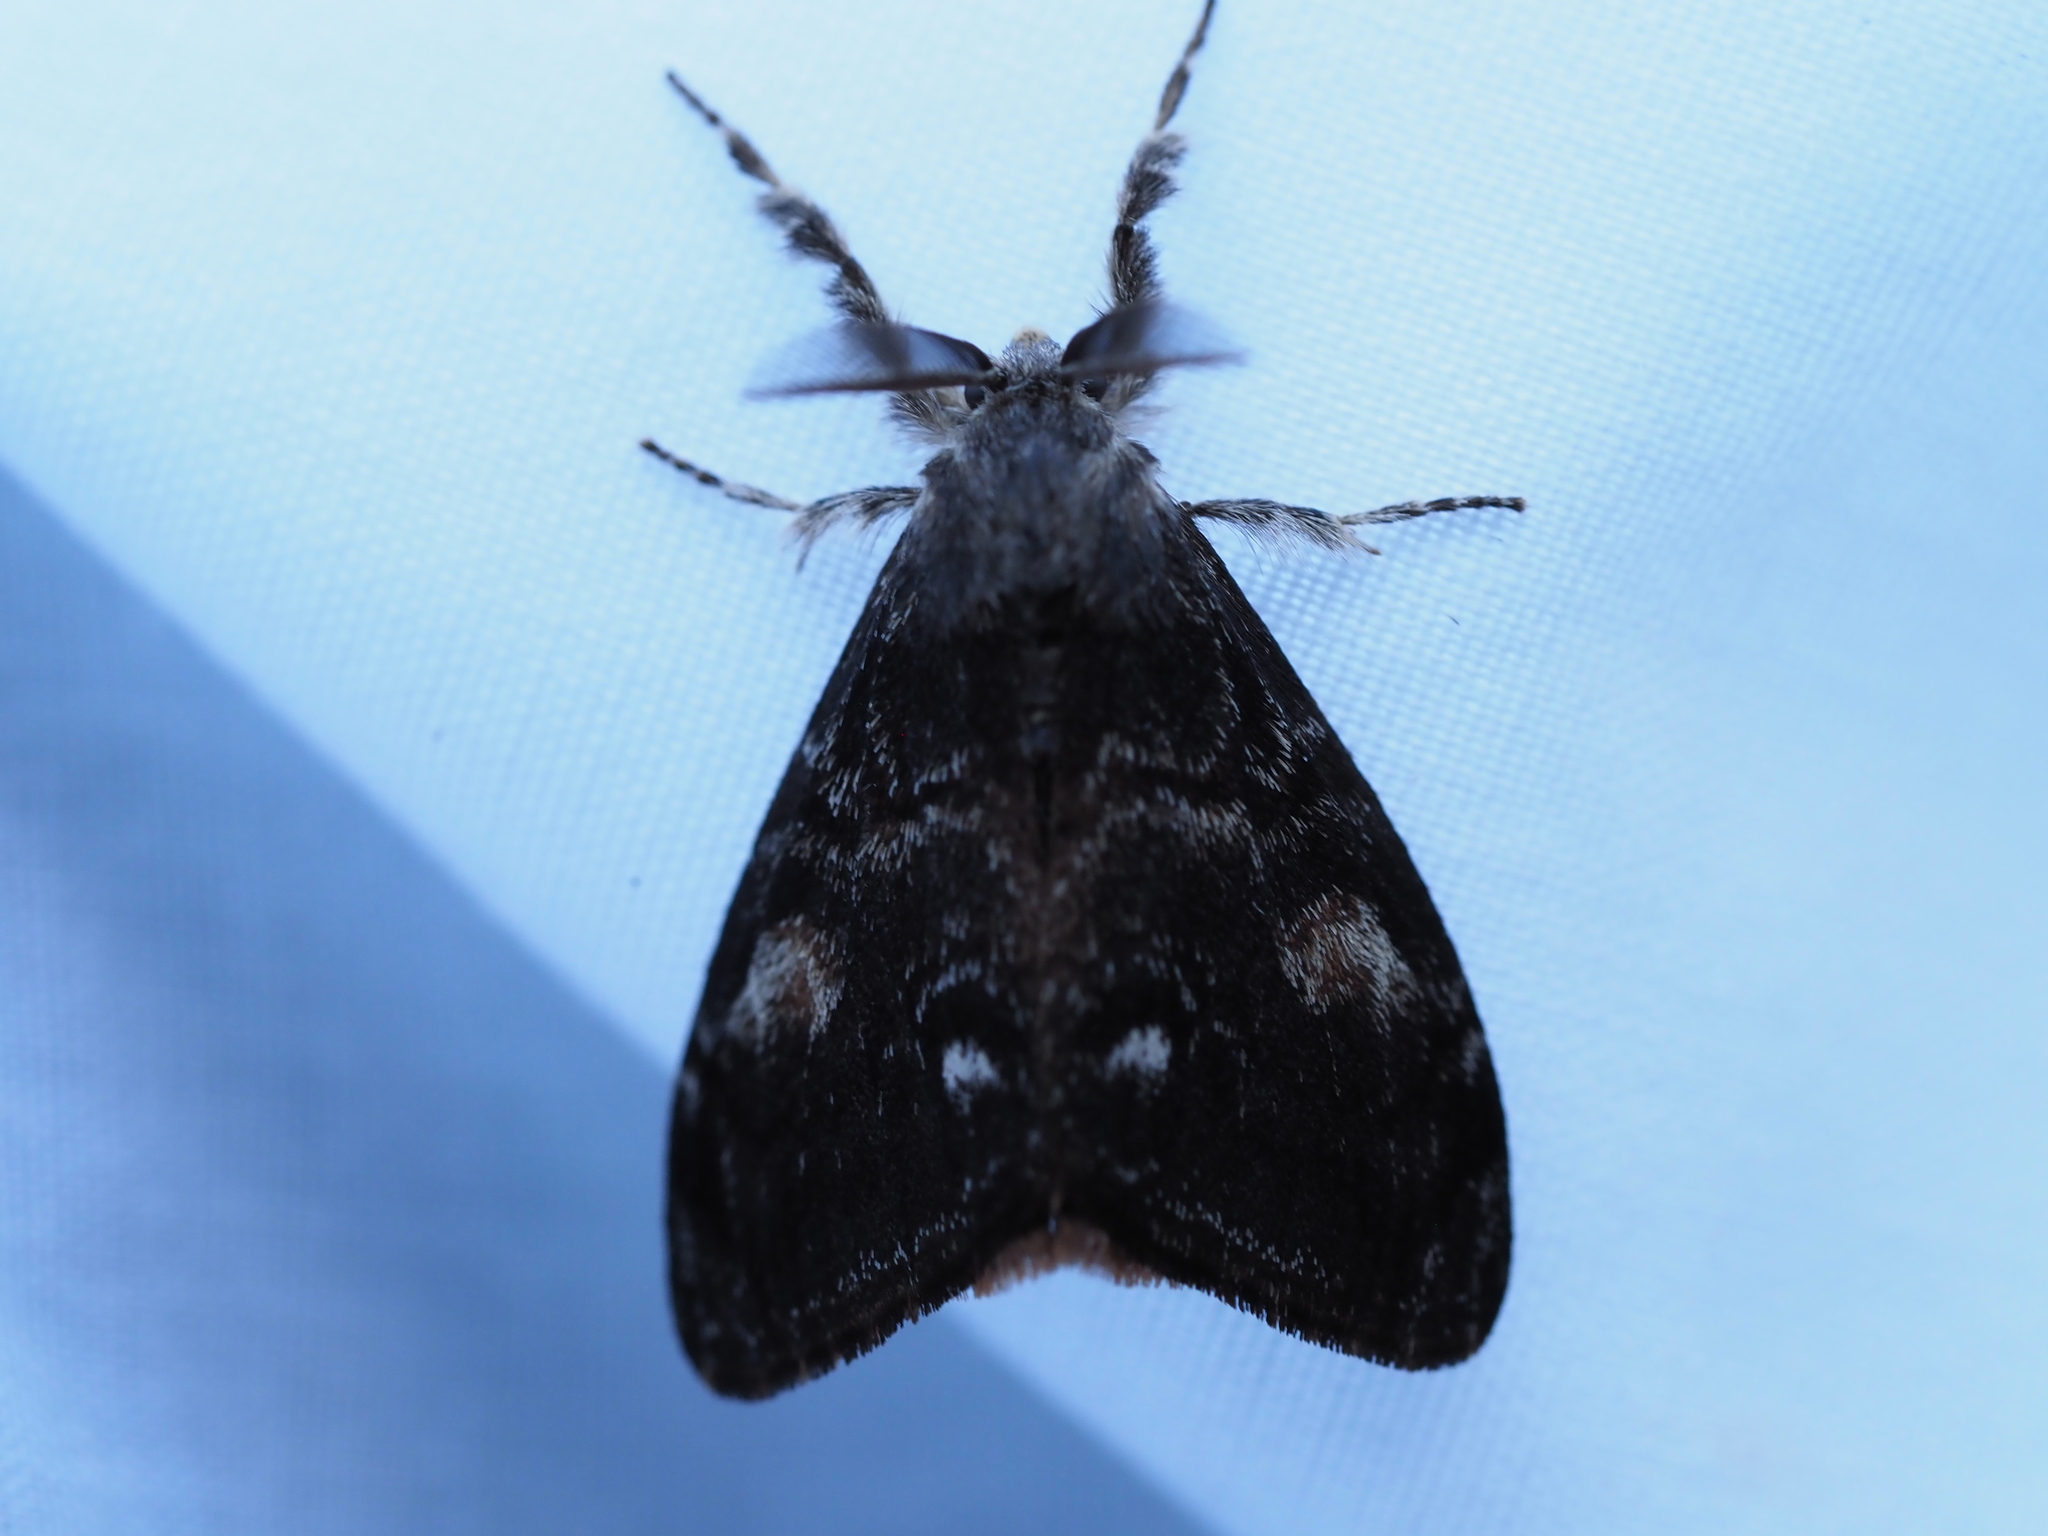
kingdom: Animalia
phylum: Arthropoda
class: Insecta
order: Lepidoptera
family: Erebidae
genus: Orgyia
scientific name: Orgyia pseudotsugata
